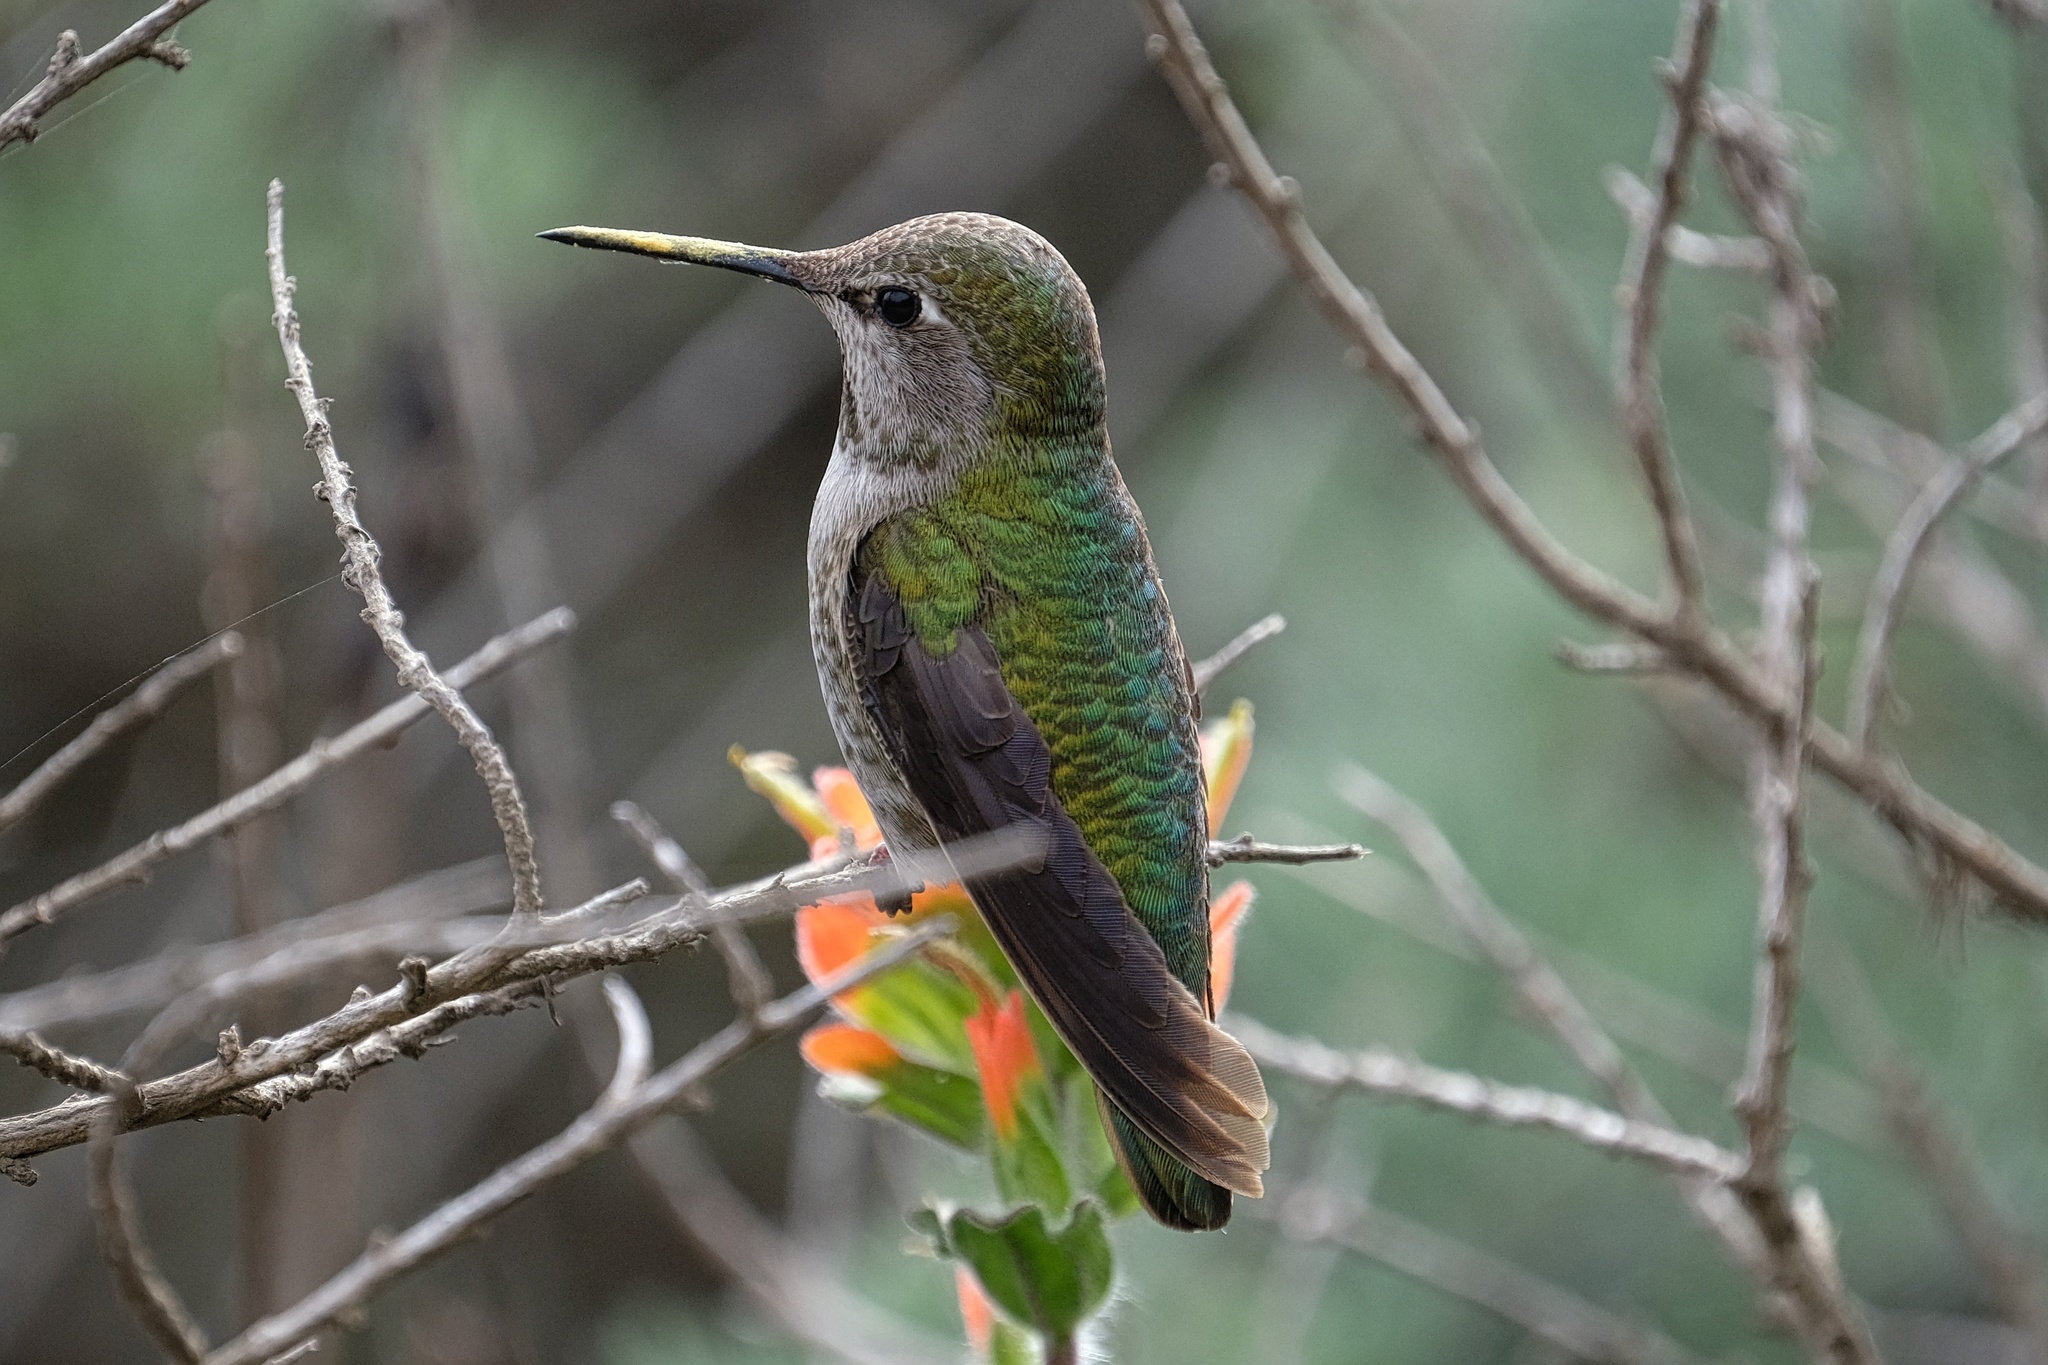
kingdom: Animalia
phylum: Chordata
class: Aves
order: Apodiformes
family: Trochilidae
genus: Calypte
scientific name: Calypte anna
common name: Anna's hummingbird
